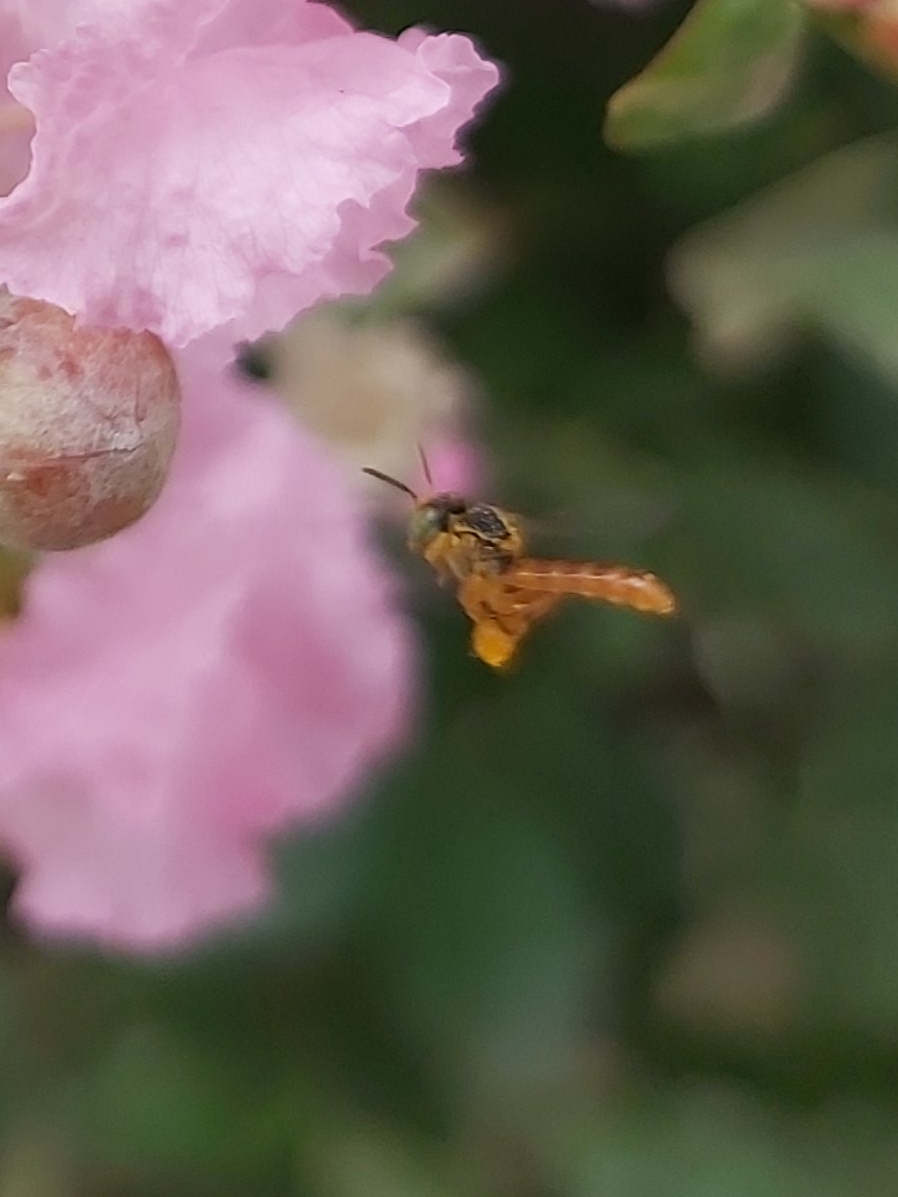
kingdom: Animalia
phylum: Arthropoda
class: Insecta
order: Hymenoptera
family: Apidae
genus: Tetragonisca
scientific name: Tetragonisca angustula
